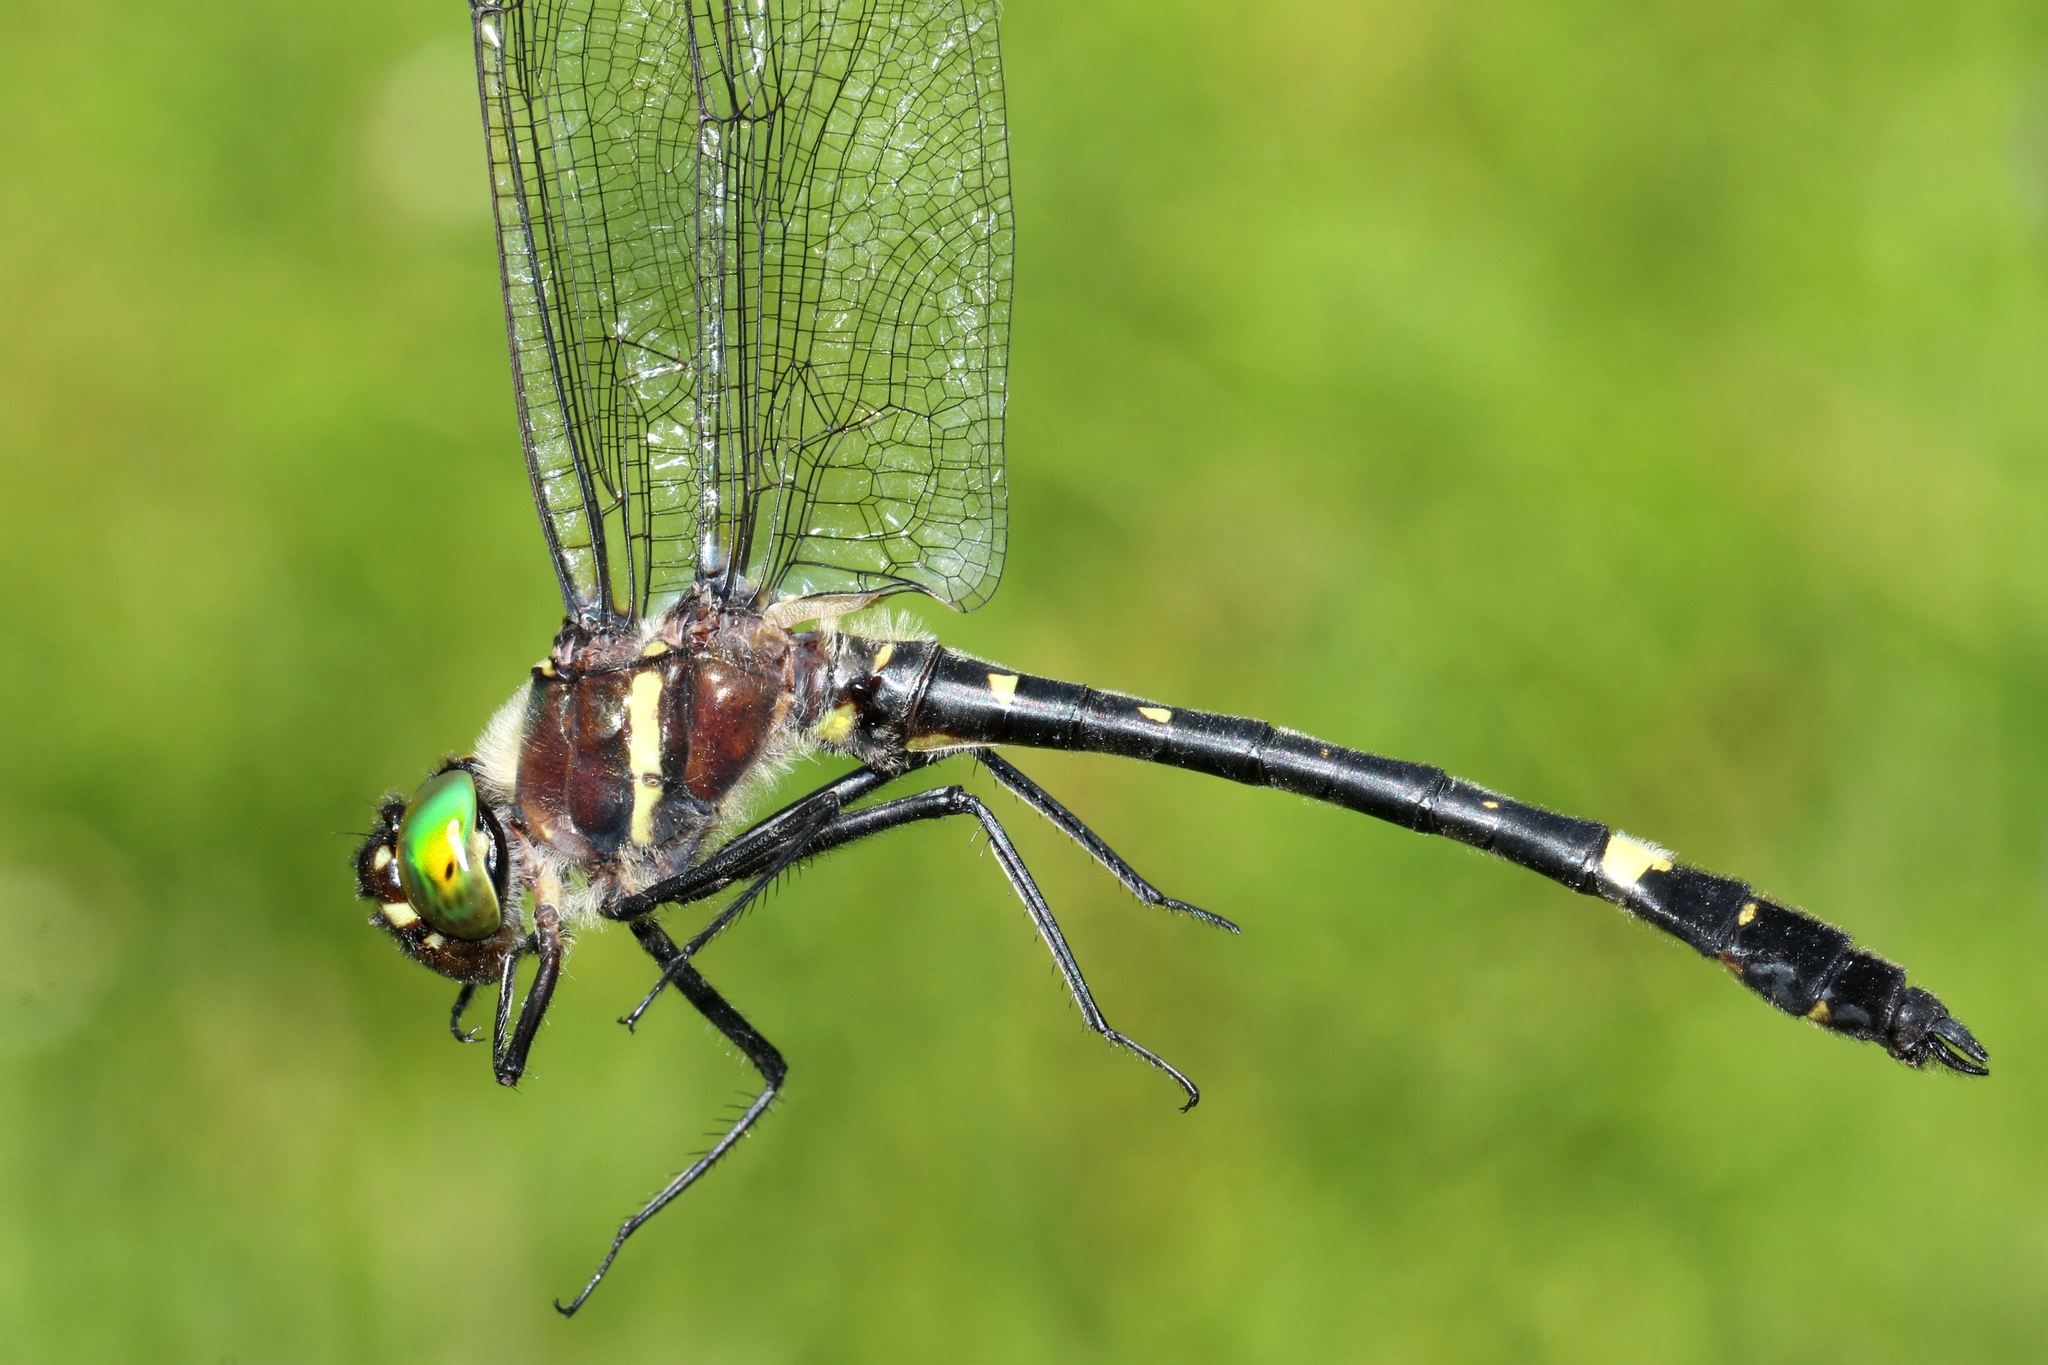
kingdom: Animalia
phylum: Arthropoda
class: Insecta
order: Odonata
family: Macromiidae
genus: Macromia
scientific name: Macromia illinoiensis
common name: Swift river cruiser
